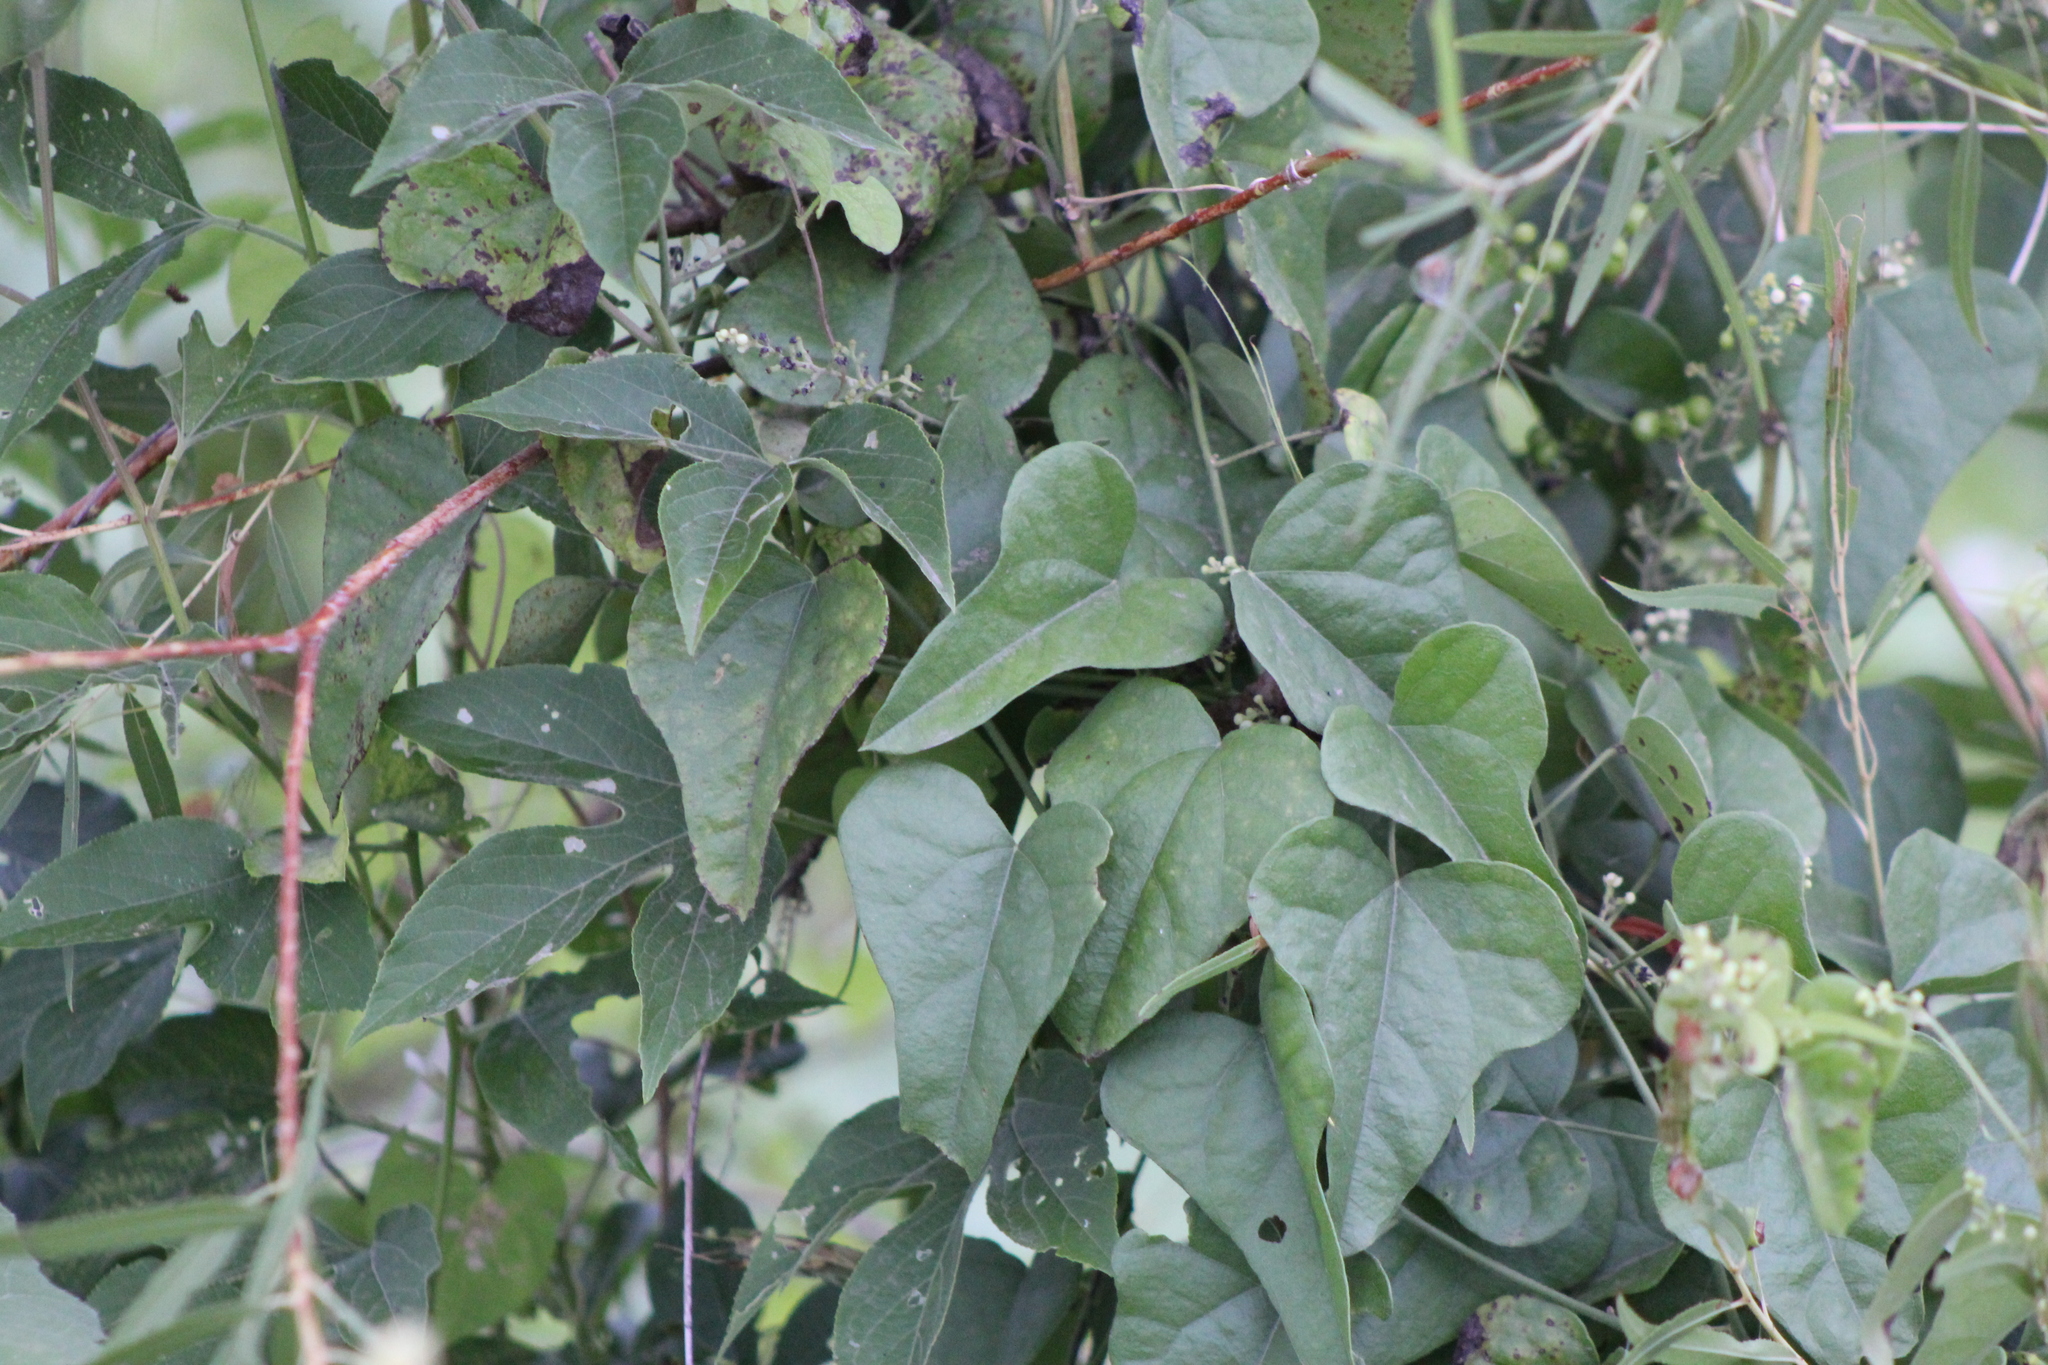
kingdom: Plantae
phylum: Tracheophyta
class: Magnoliopsida
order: Ranunculales
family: Menispermaceae
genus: Cocculus
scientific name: Cocculus carolinus
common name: Carolina moonseed
